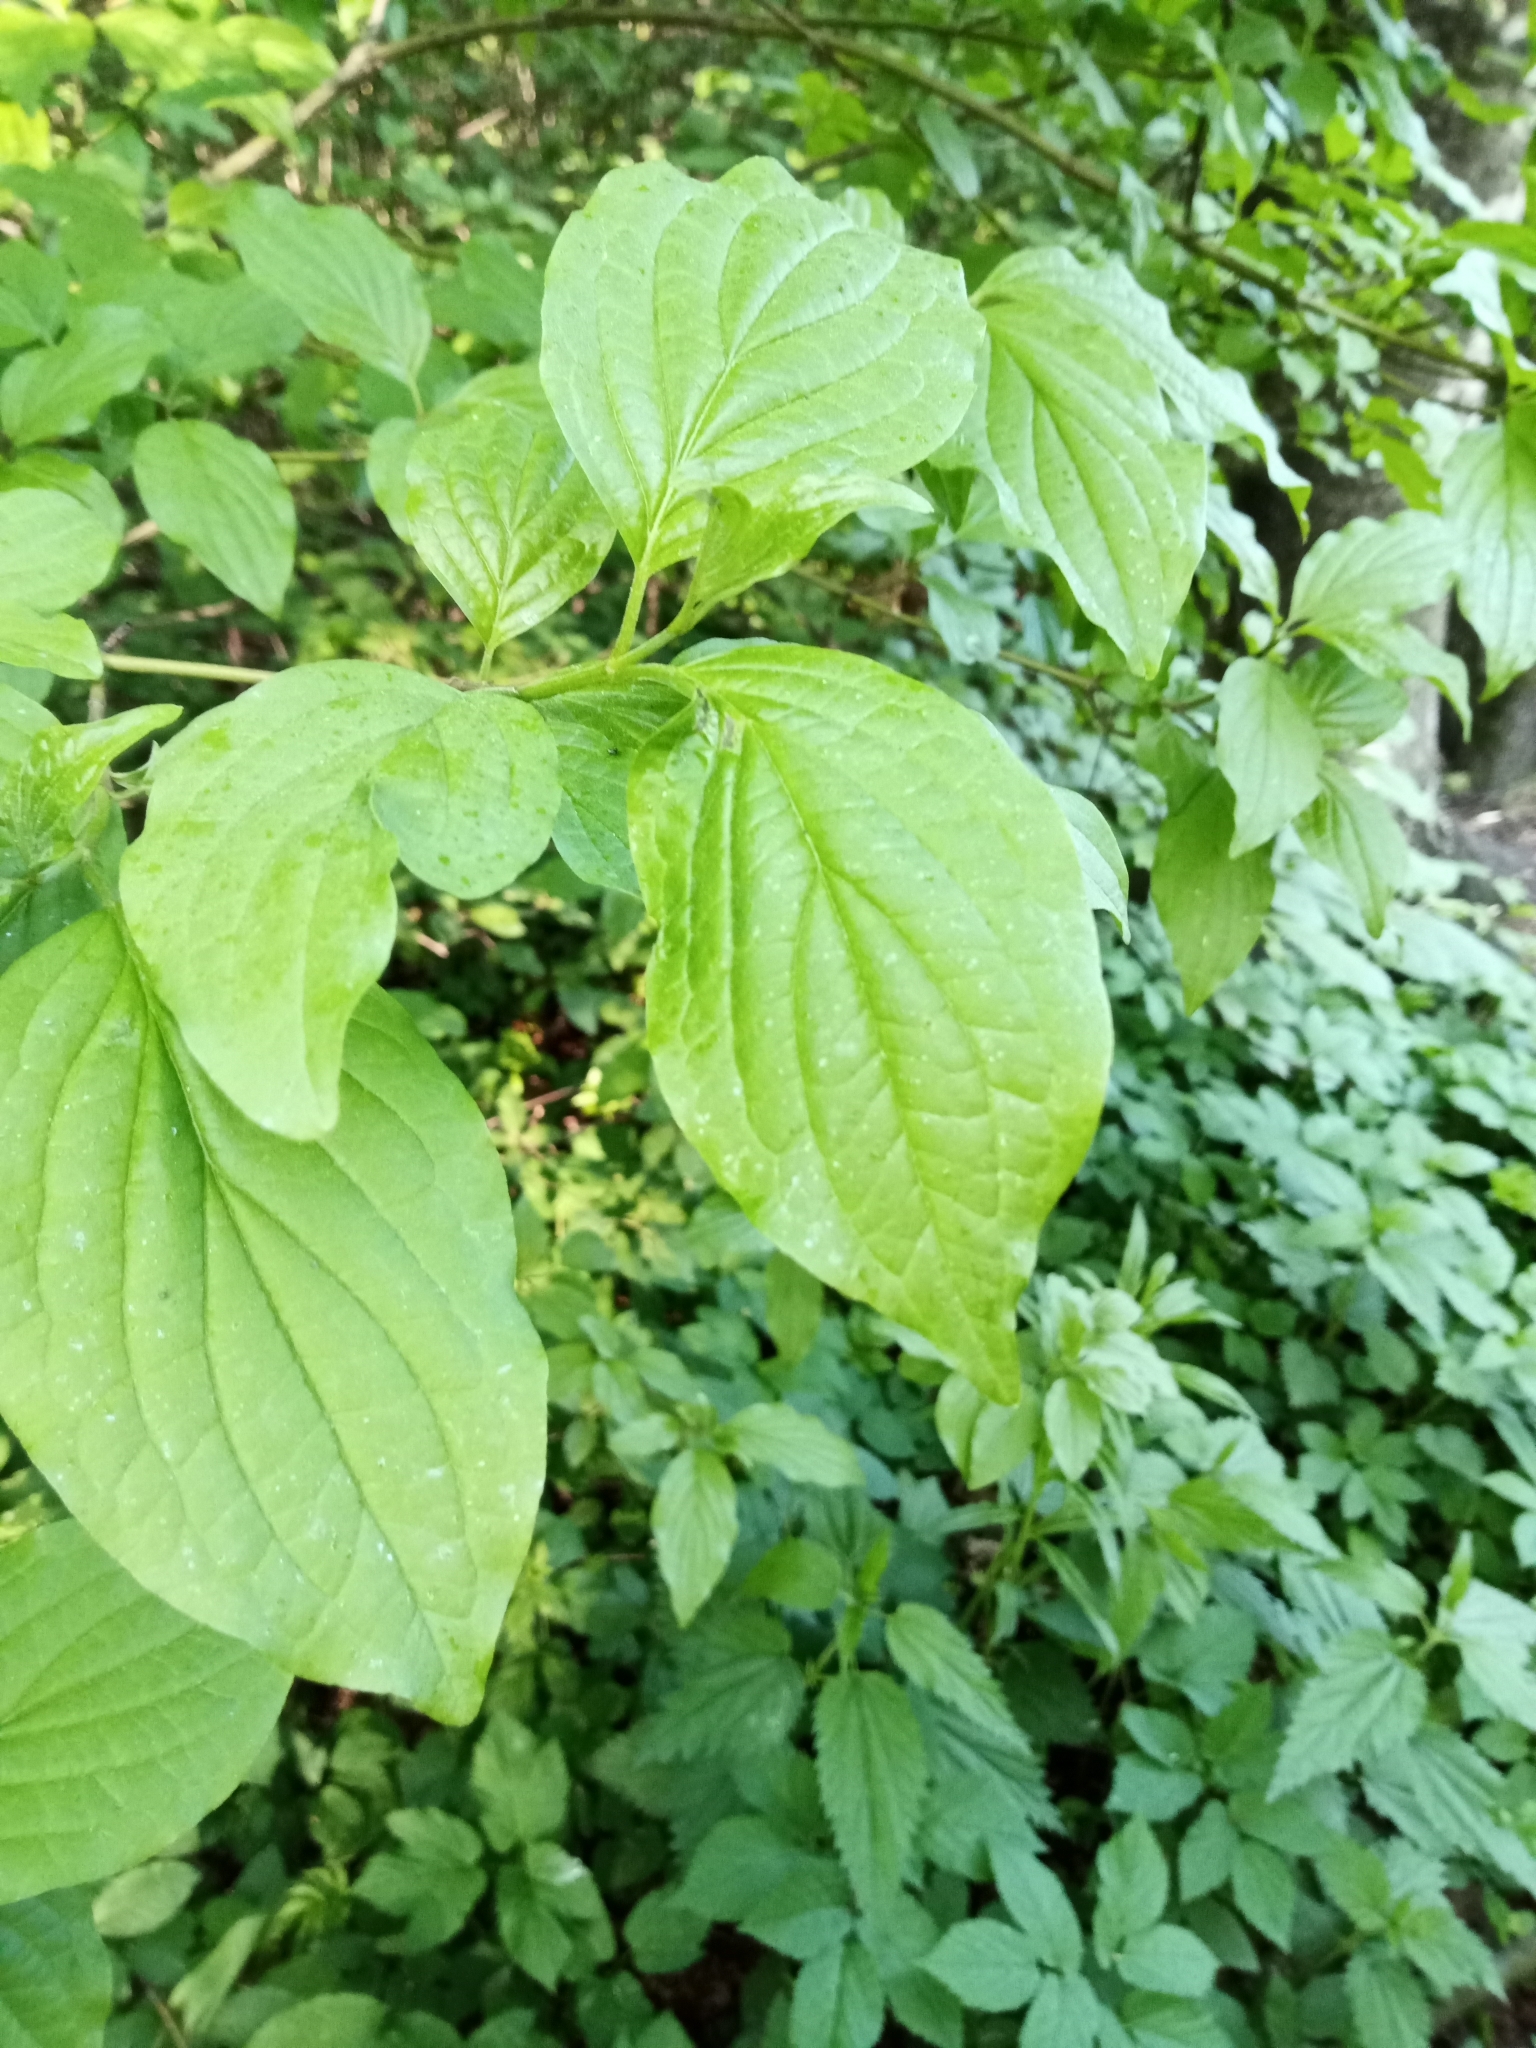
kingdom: Plantae
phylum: Tracheophyta
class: Magnoliopsida
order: Cornales
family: Cornaceae
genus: Cornus
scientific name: Cornus sanguinea
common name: Dogwood
